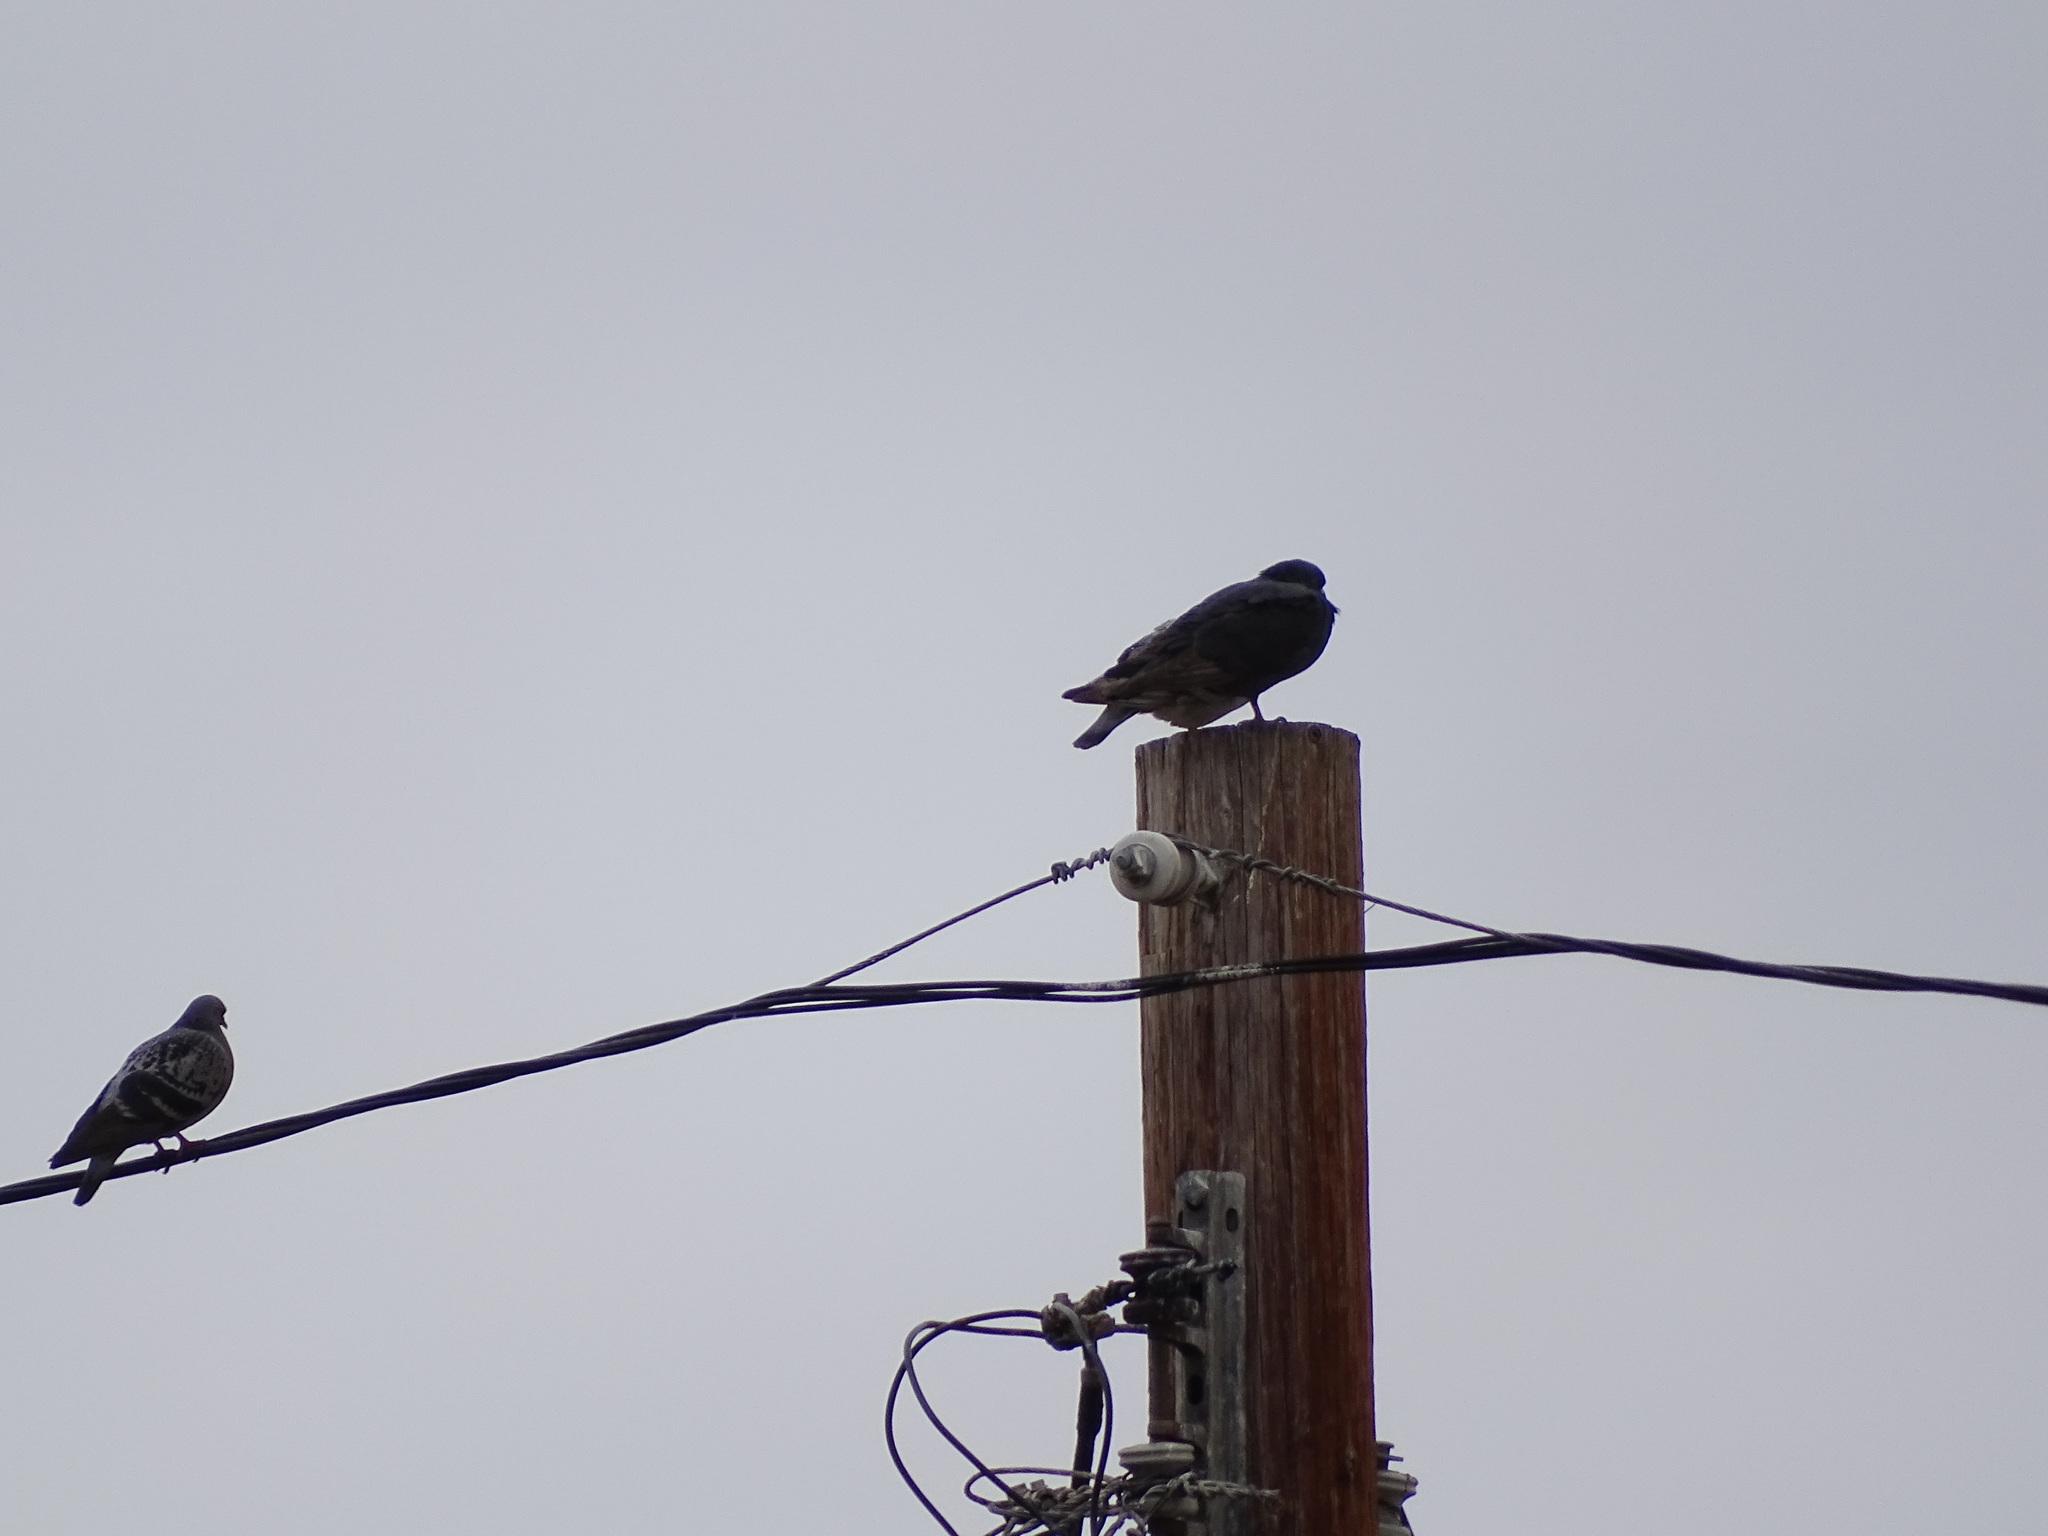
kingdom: Animalia
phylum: Chordata
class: Aves
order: Columbiformes
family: Columbidae
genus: Columba
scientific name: Columba livia
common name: Rock pigeon
